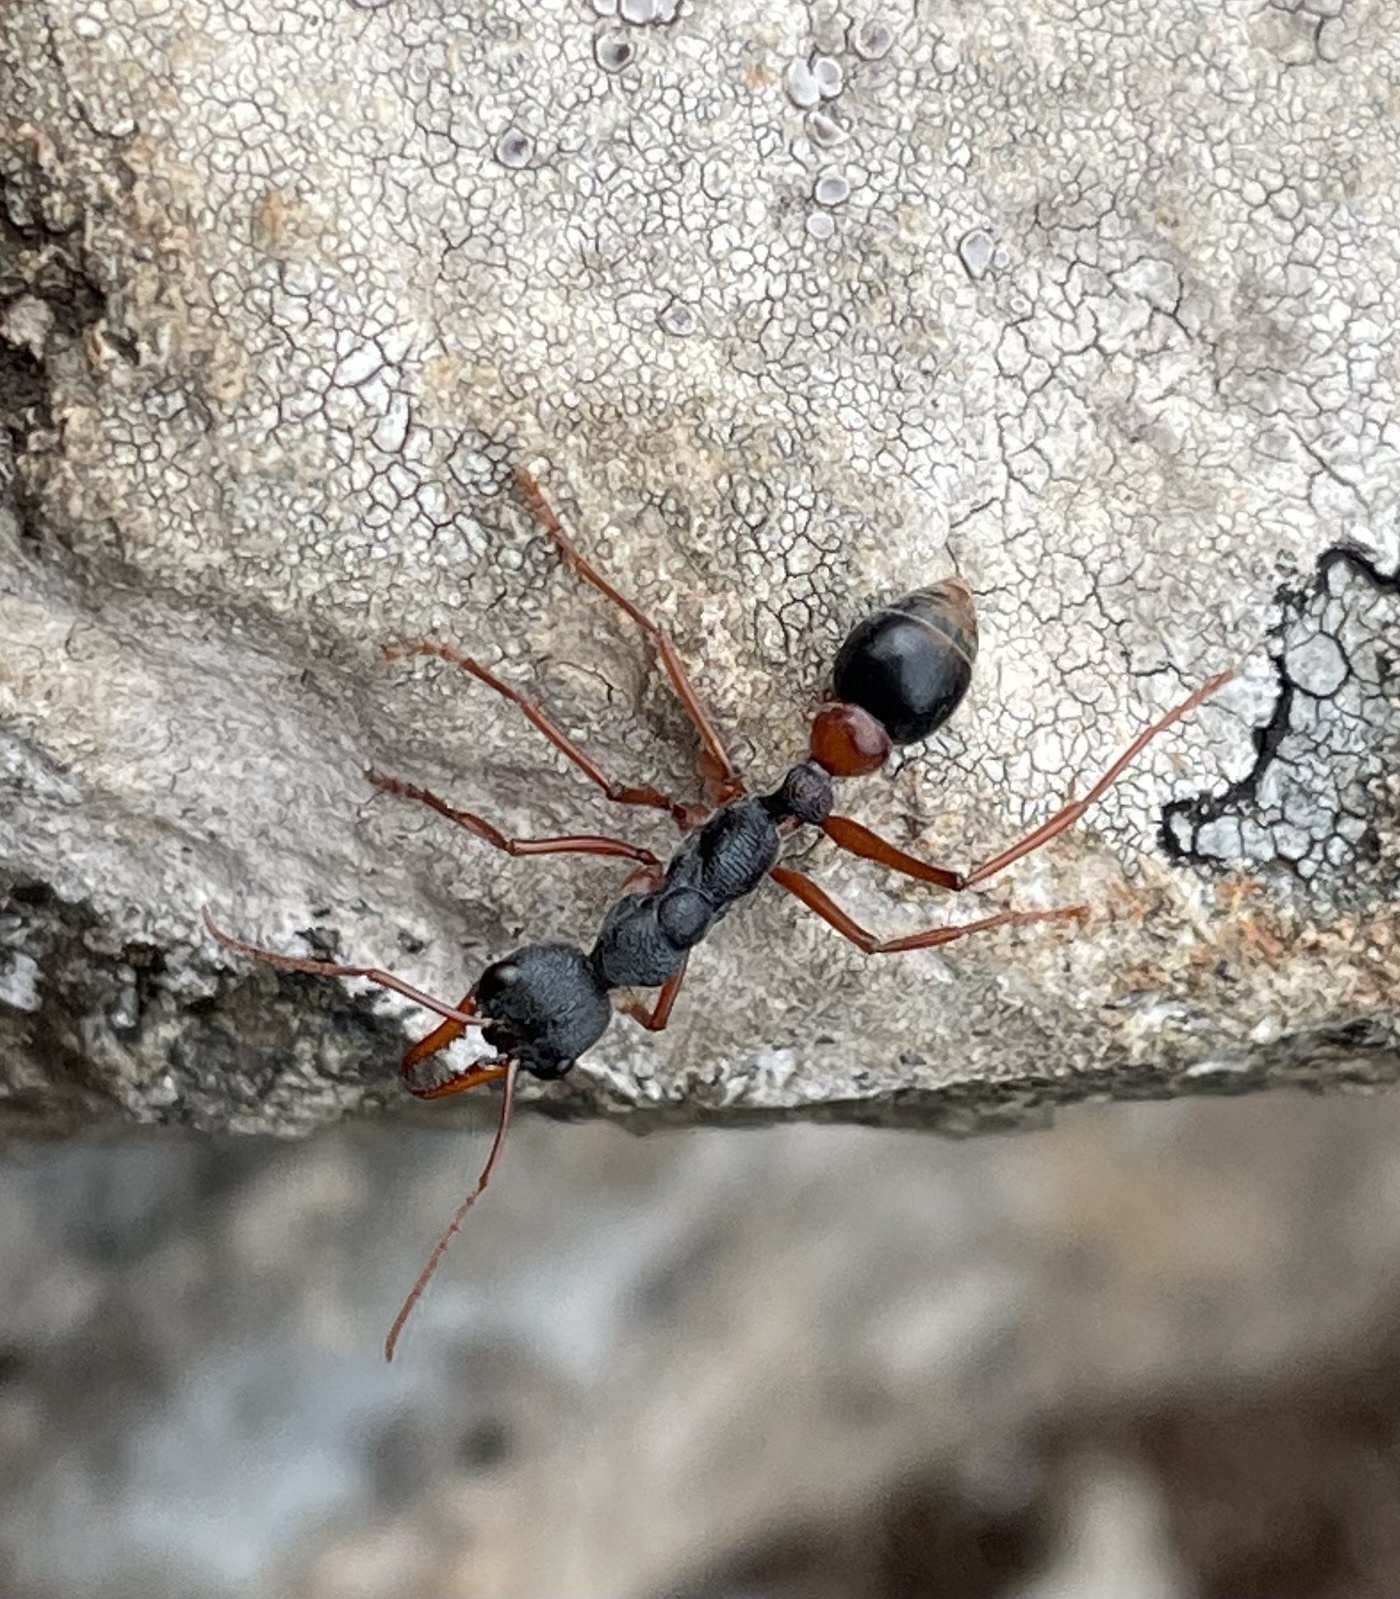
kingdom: Animalia
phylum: Arthropoda
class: Insecta
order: Hymenoptera
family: Formicidae
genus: Myrmecia
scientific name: Myrmecia esuriens
